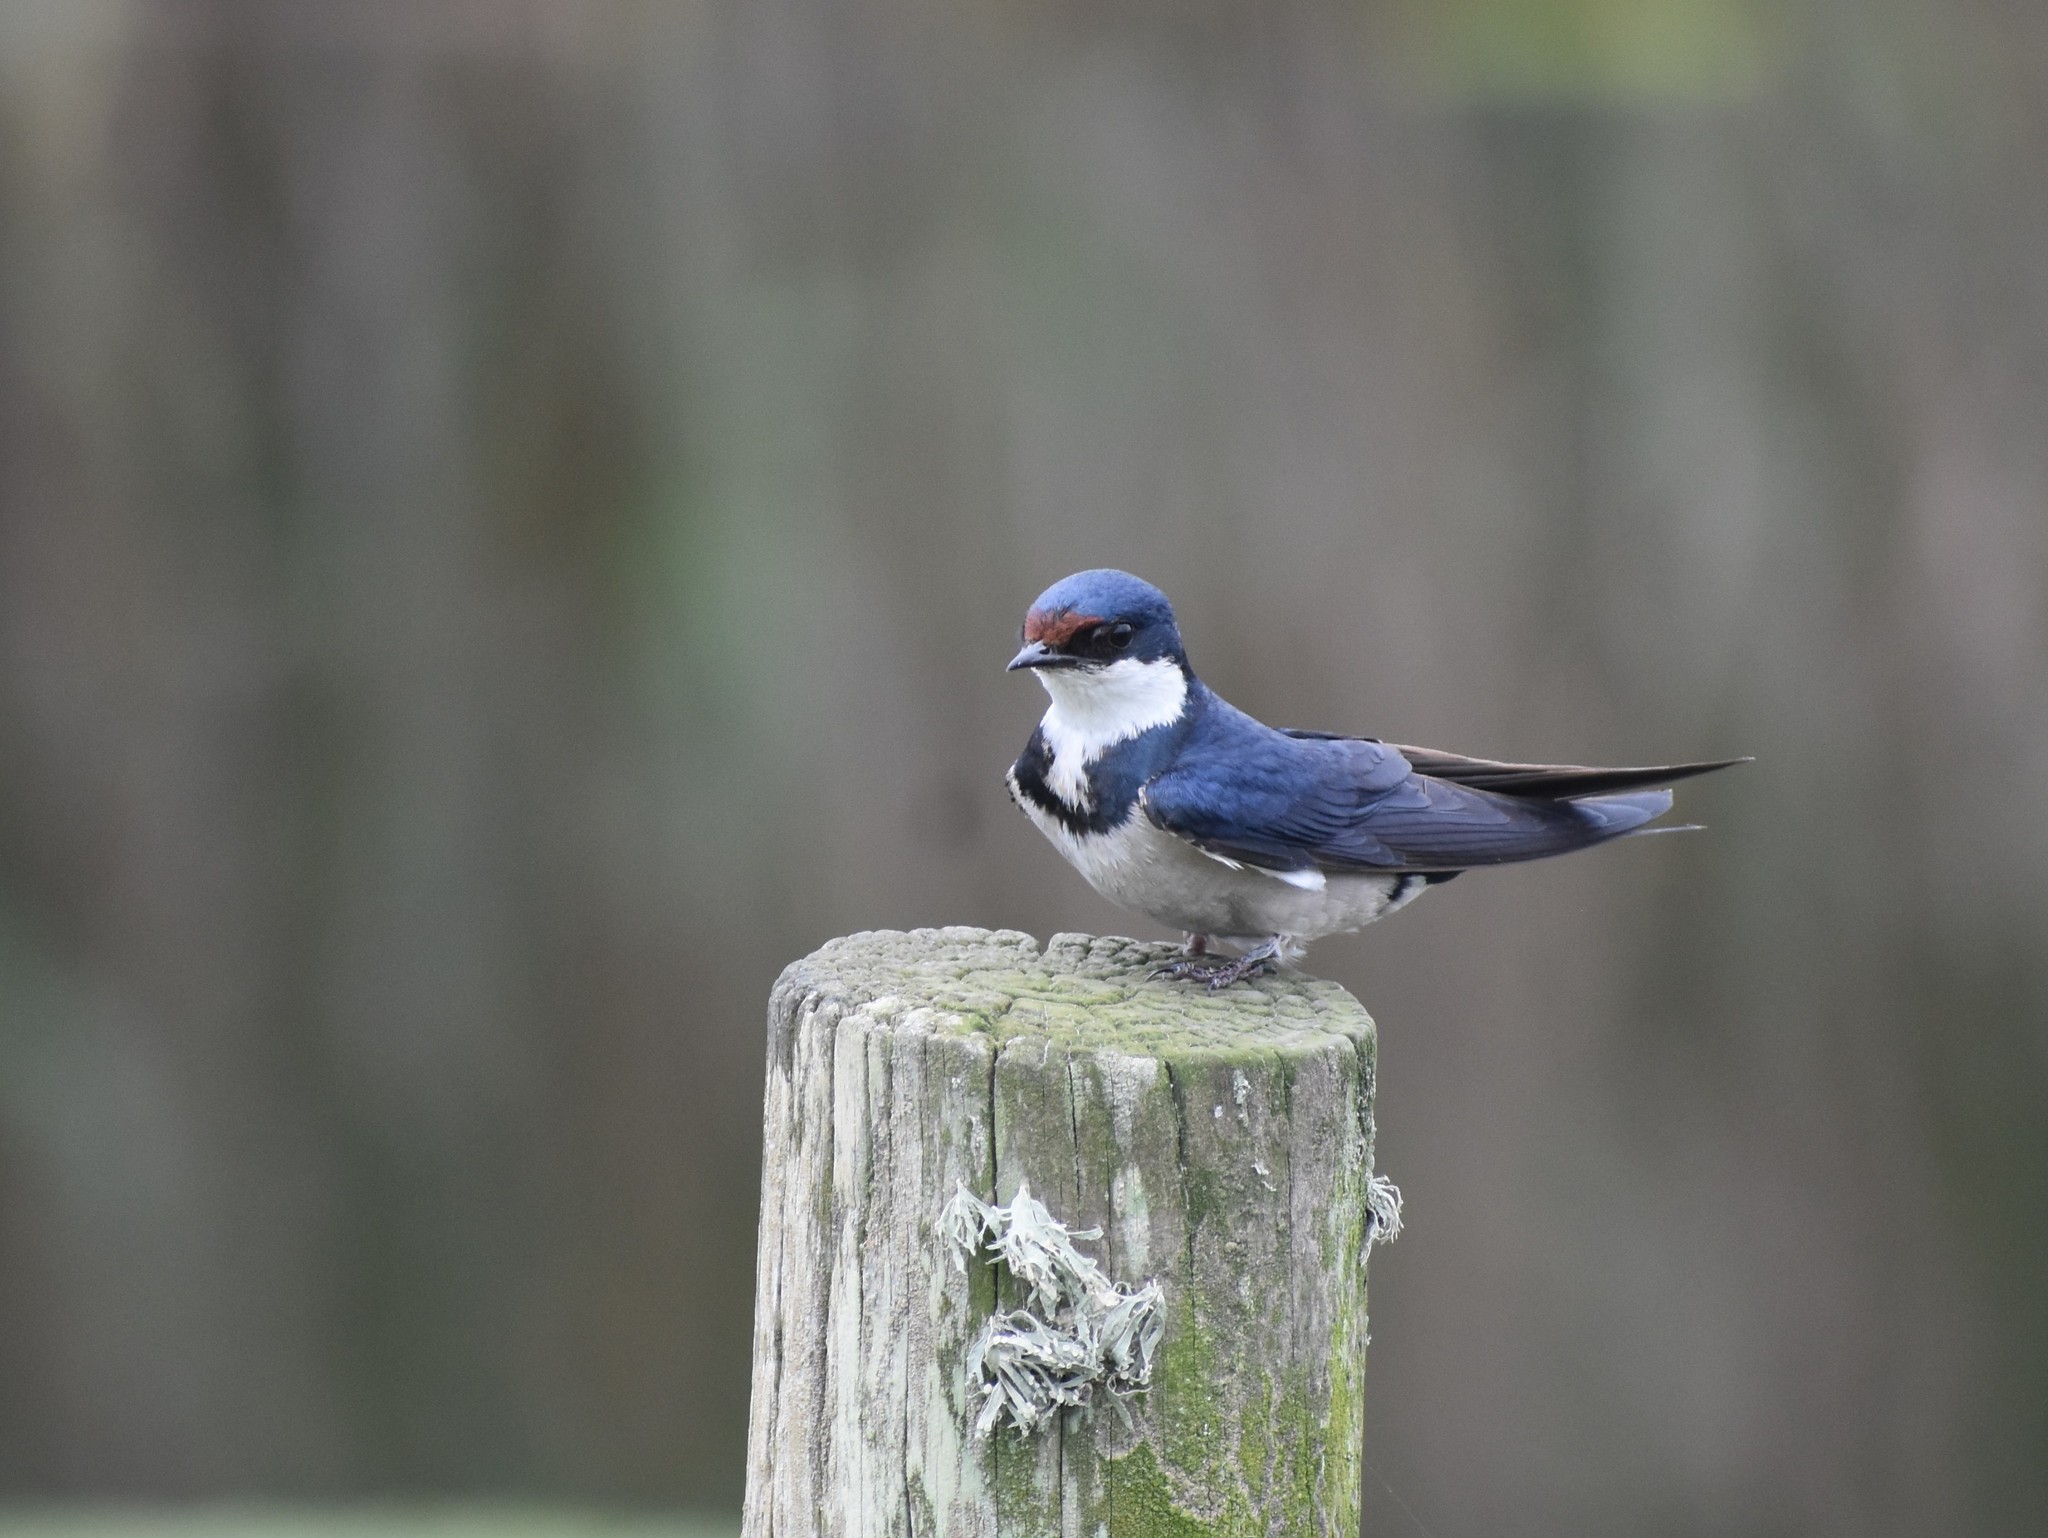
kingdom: Animalia
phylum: Chordata
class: Aves
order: Passeriformes
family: Hirundinidae
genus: Hirundo
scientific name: Hirundo albigularis
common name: White-throated swallow
